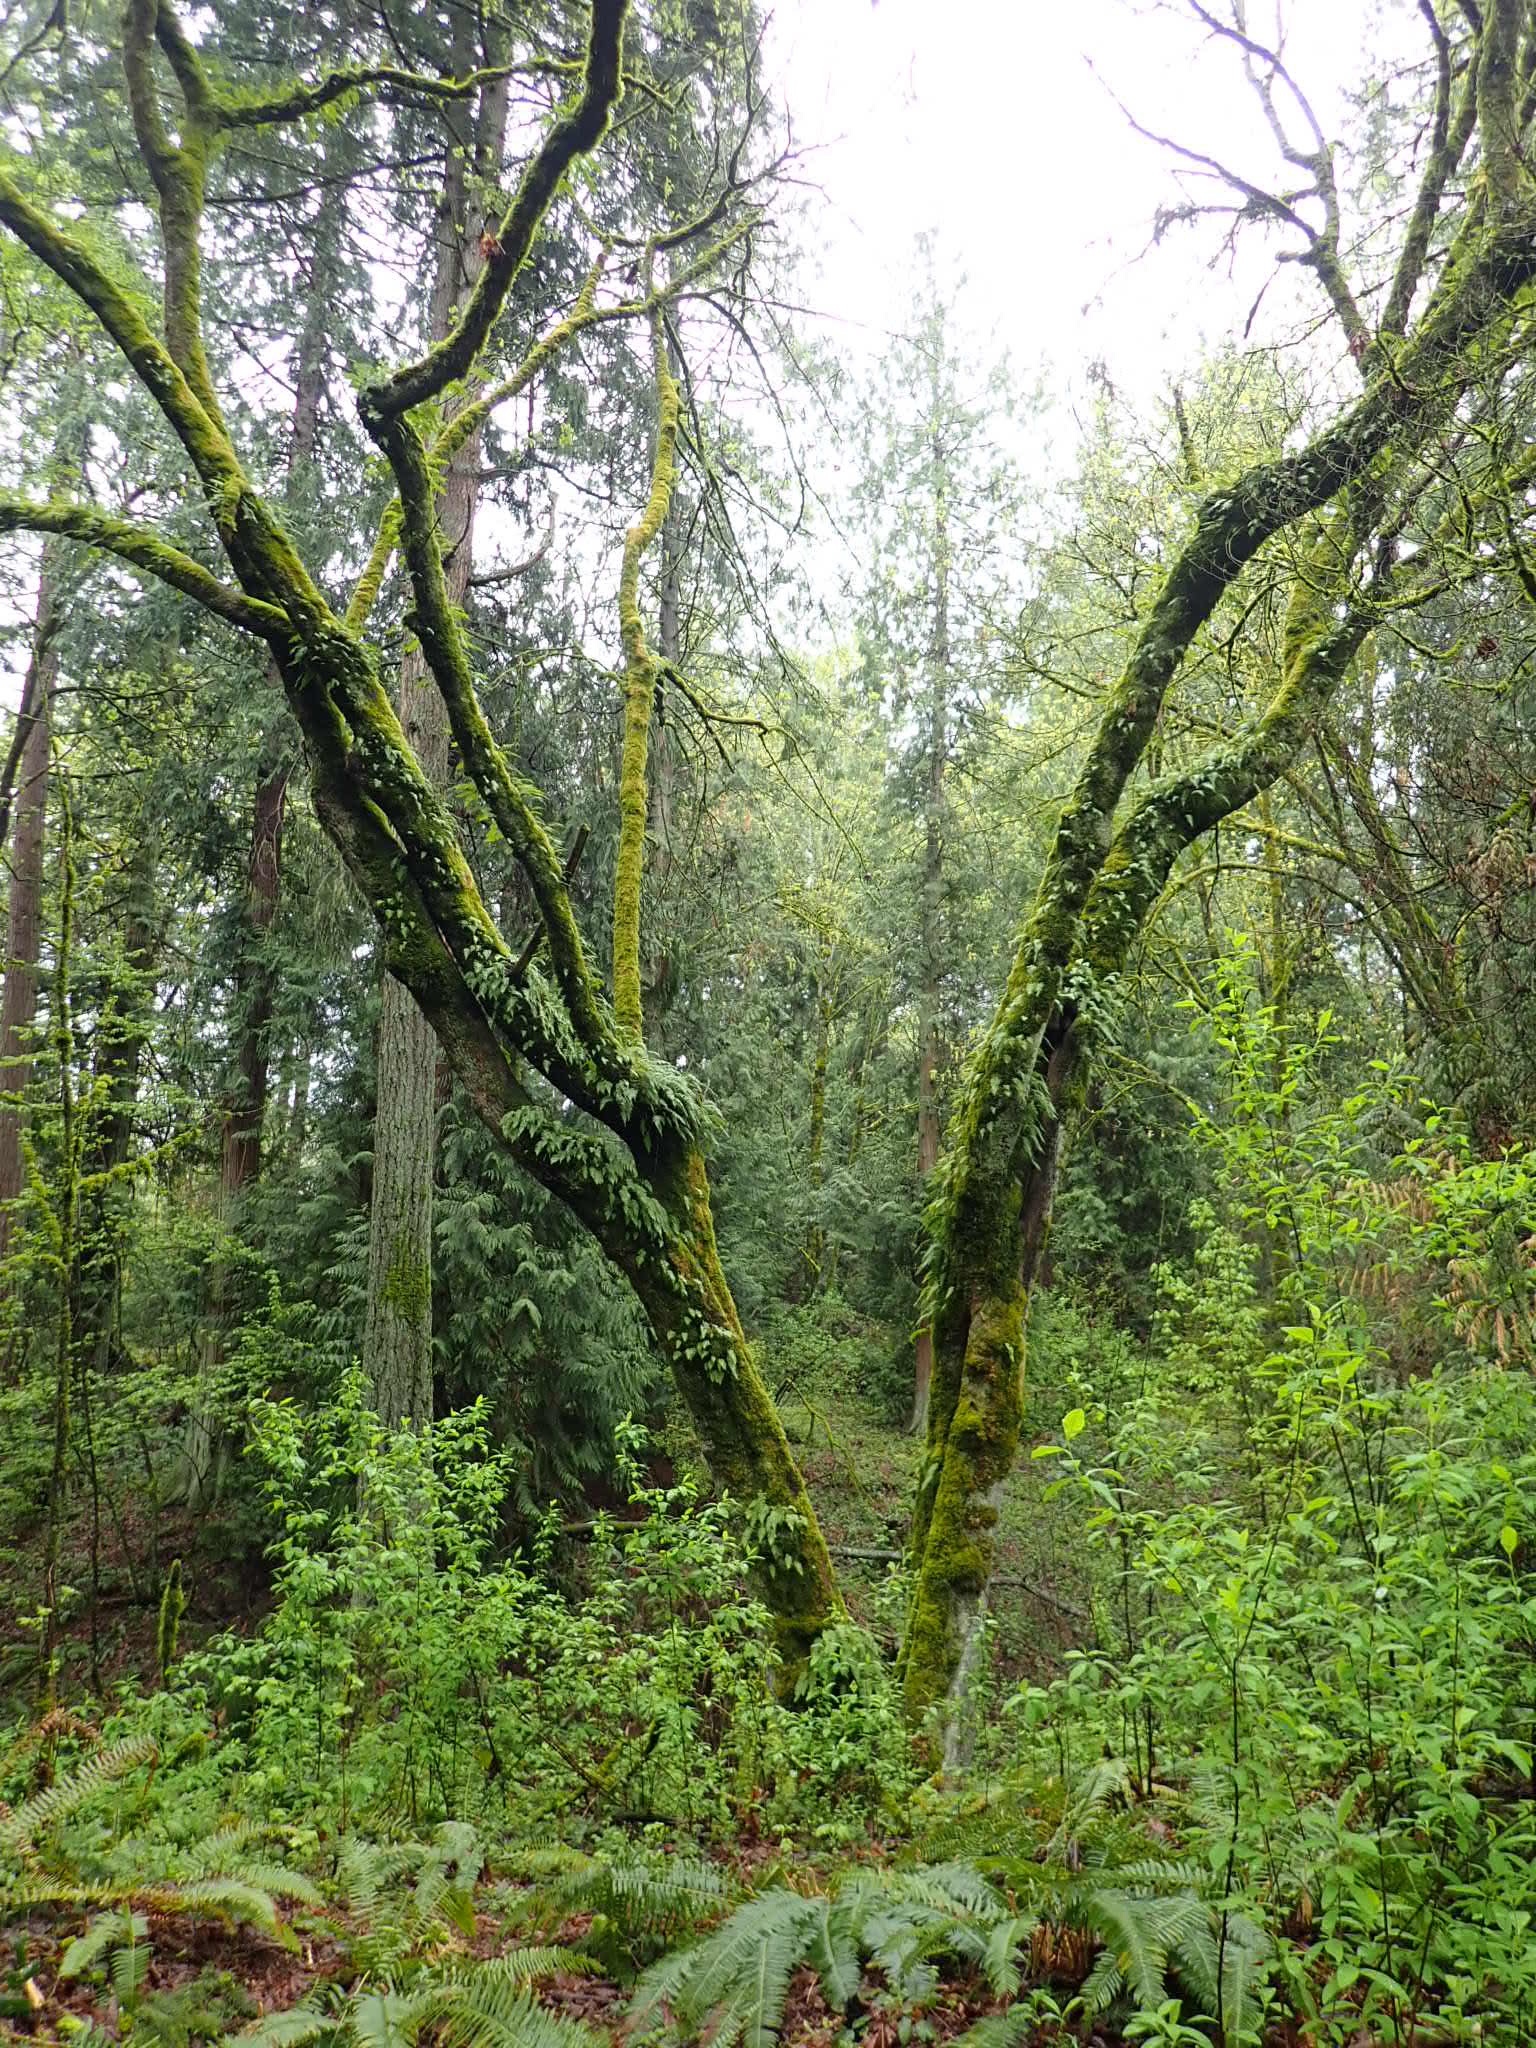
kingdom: Plantae
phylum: Tracheophyta
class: Magnoliopsida
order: Sapindales
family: Sapindaceae
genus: Acer
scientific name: Acer macrophyllum
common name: Oregon maple
